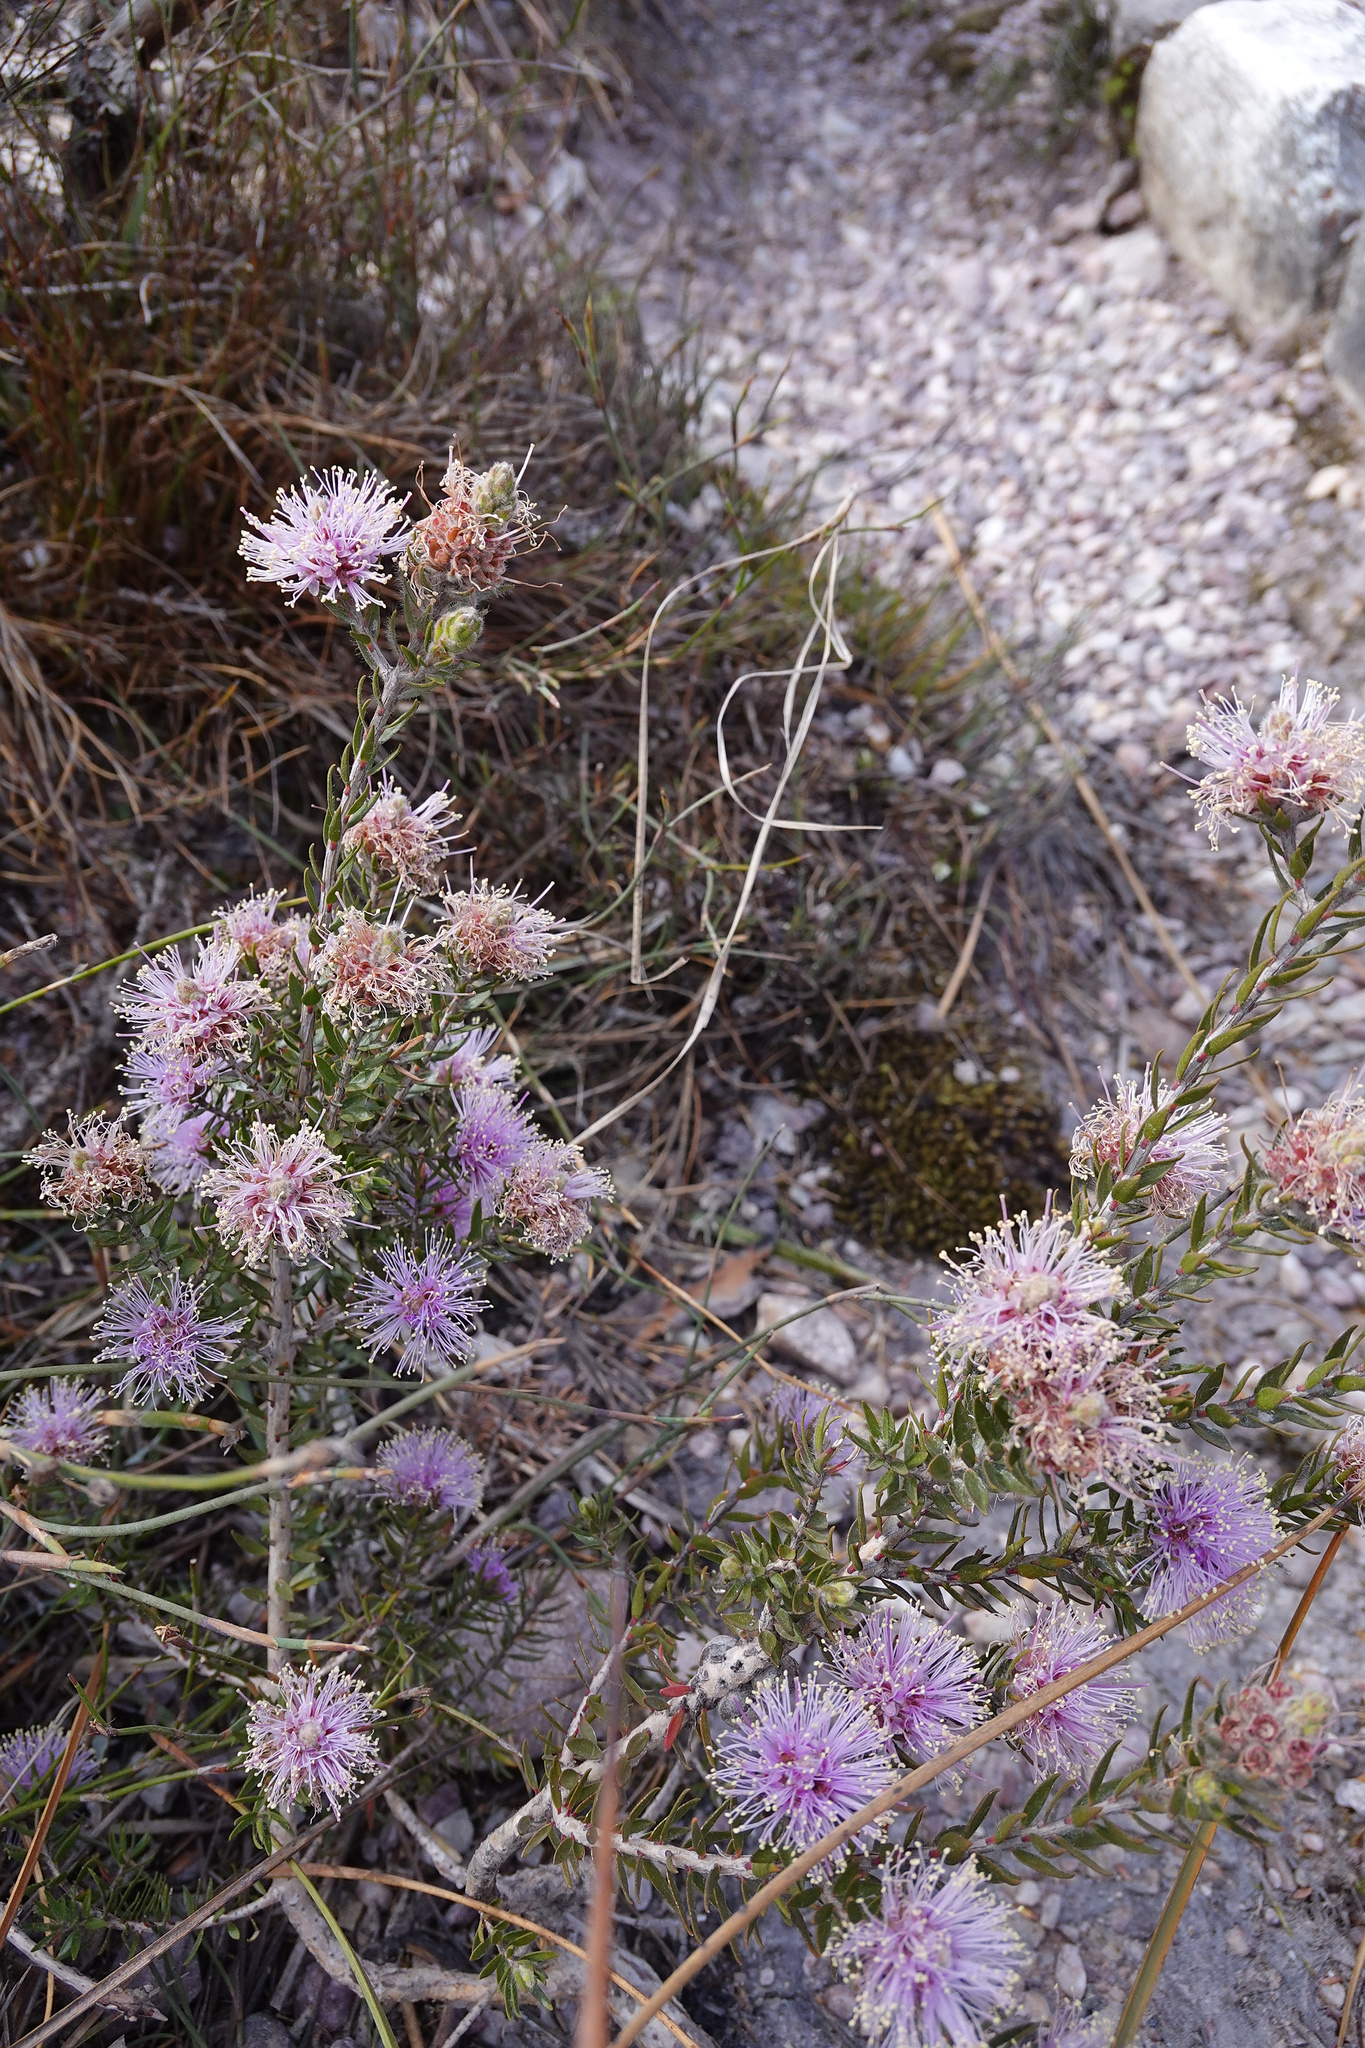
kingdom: Plantae
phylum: Tracheophyta
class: Magnoliopsida
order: Myrtales
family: Myrtaceae
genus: Melaleuca
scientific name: Melaleuca squamea
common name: Swamp melaleuca
